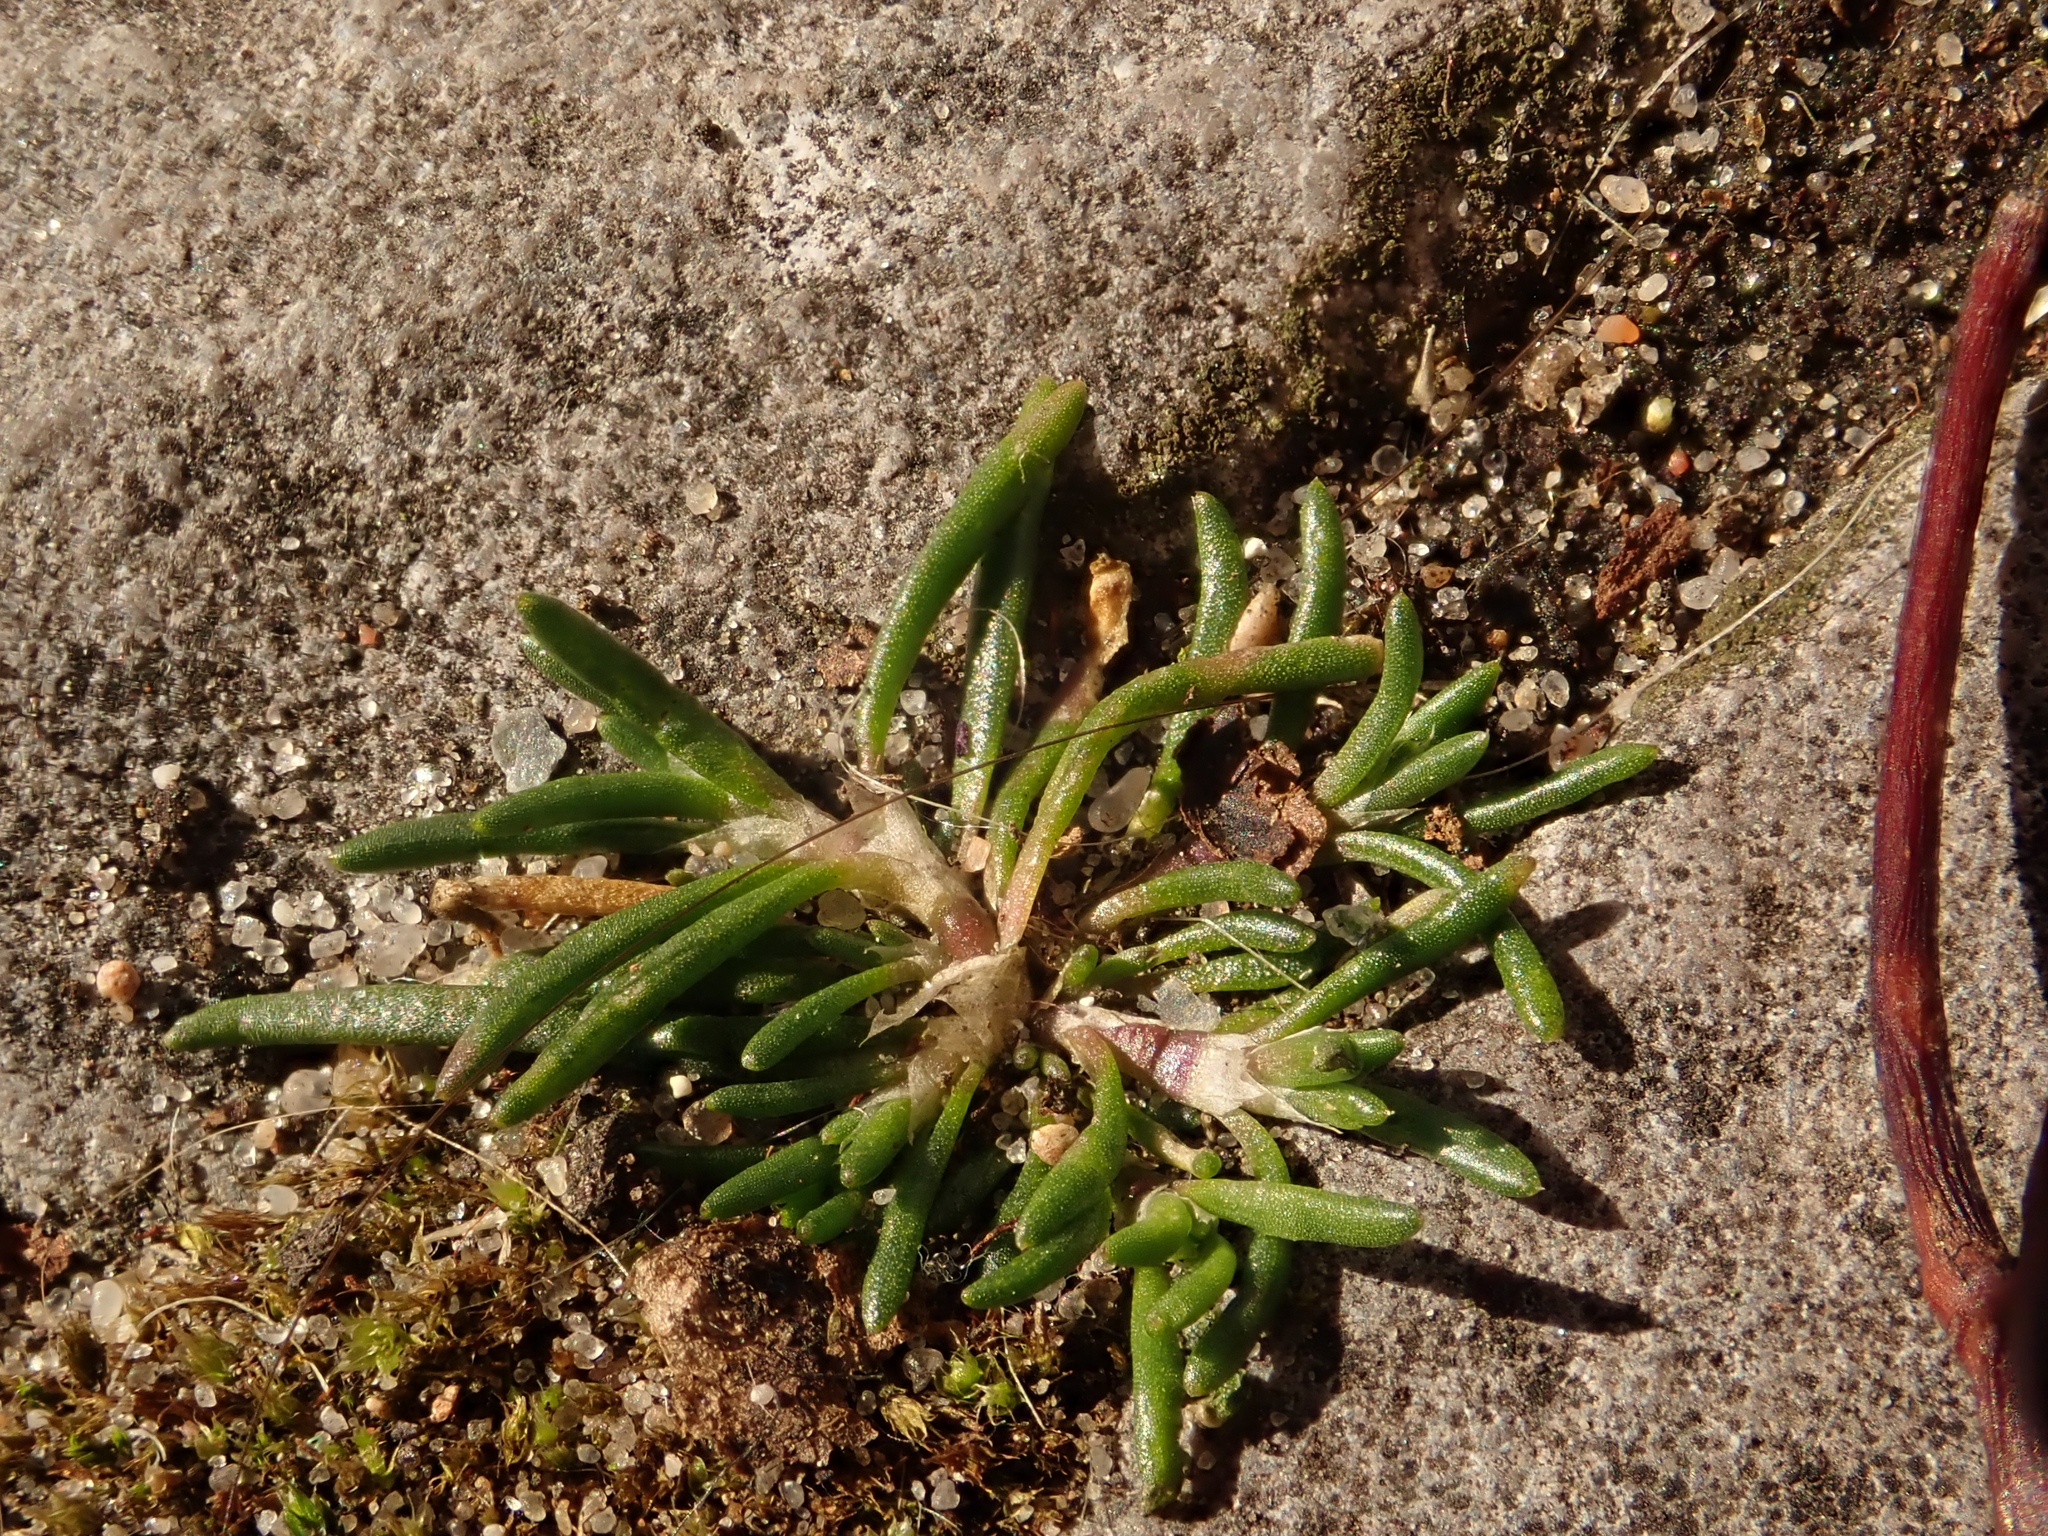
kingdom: Plantae
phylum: Tracheophyta
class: Magnoliopsida
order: Caryophyllales
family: Caryophyllaceae
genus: Spergularia
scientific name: Spergularia rubra
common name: Red sand-spurrey
